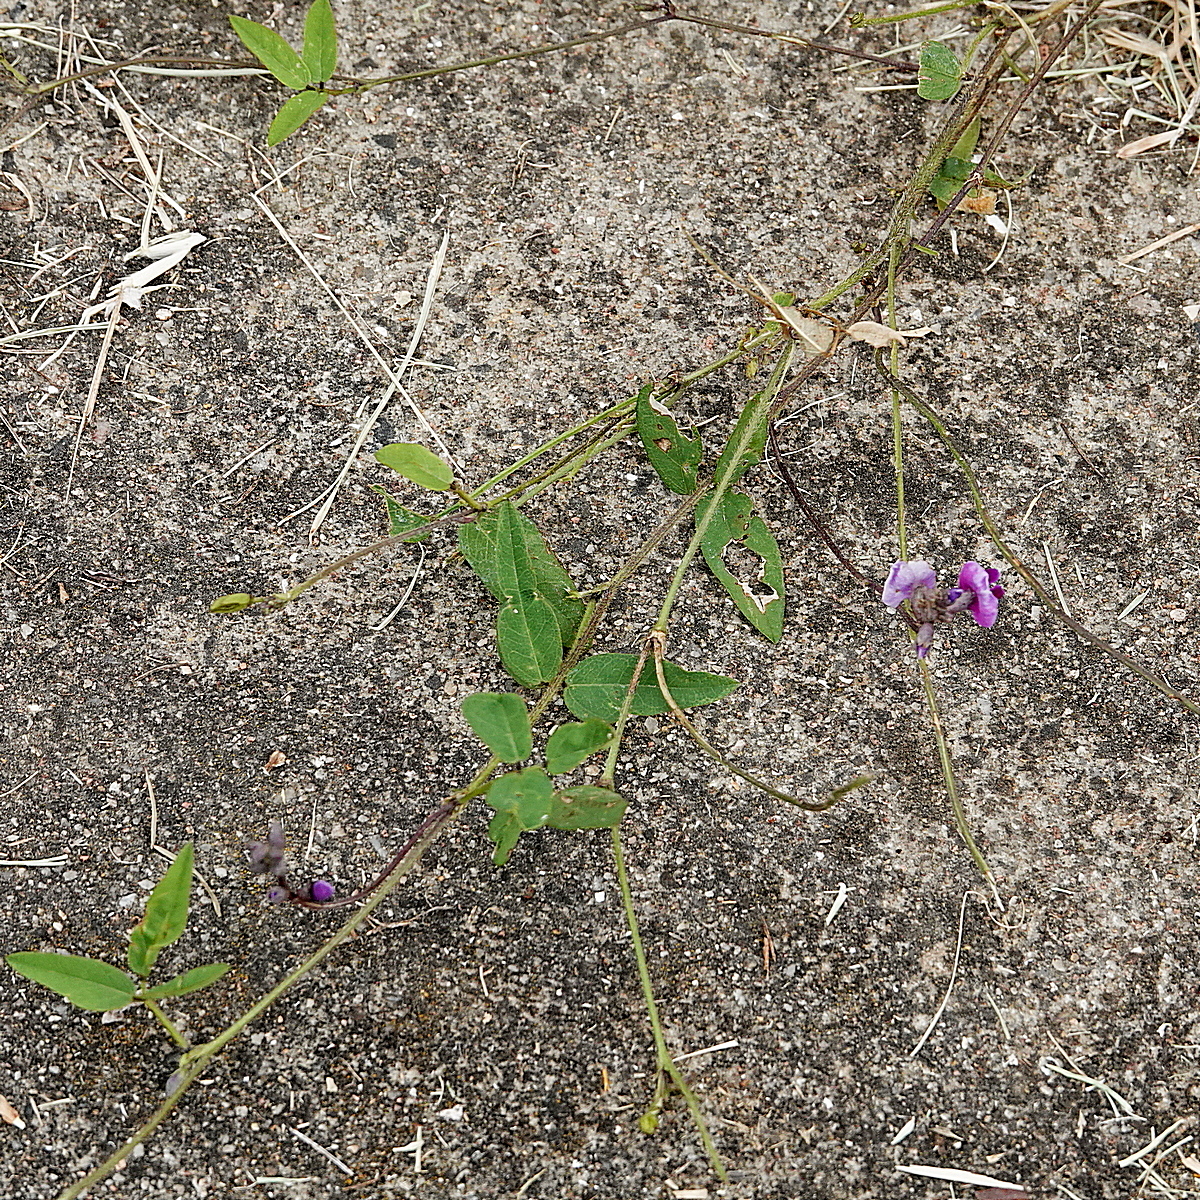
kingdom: Plantae
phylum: Tracheophyta
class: Magnoliopsida
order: Fabales
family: Fabaceae
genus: Glycine
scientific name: Glycine tabacina
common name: Pea glycine
